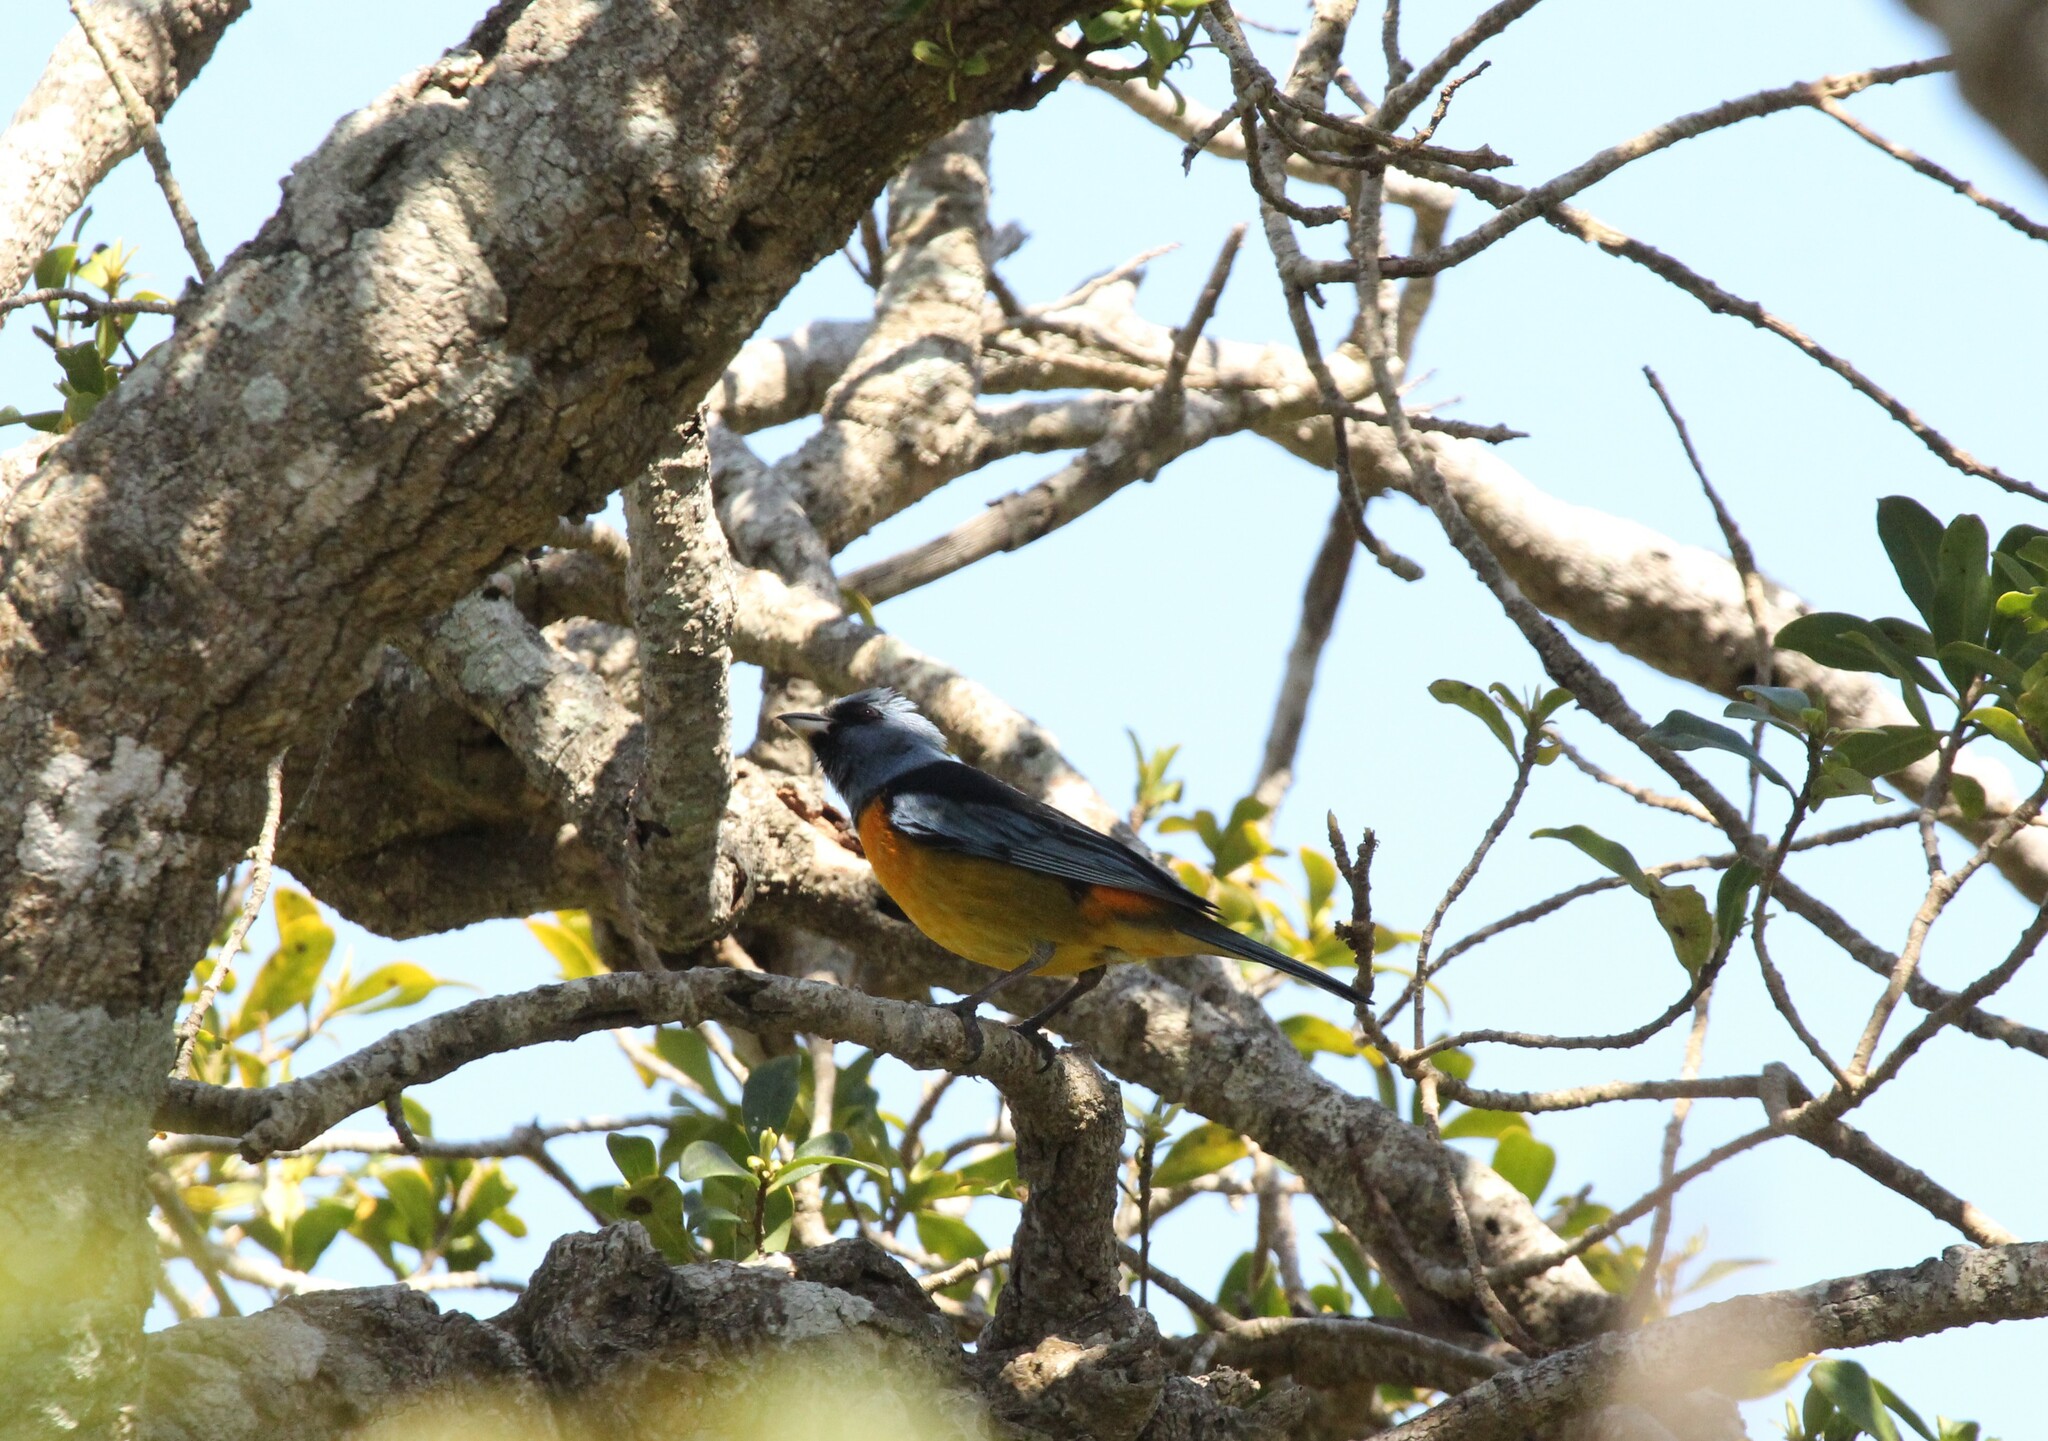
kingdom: Animalia
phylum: Chordata
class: Aves
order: Passeriformes
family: Thraupidae
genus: Rauenia
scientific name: Rauenia bonariensis
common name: Blue-and-yellow tanager
